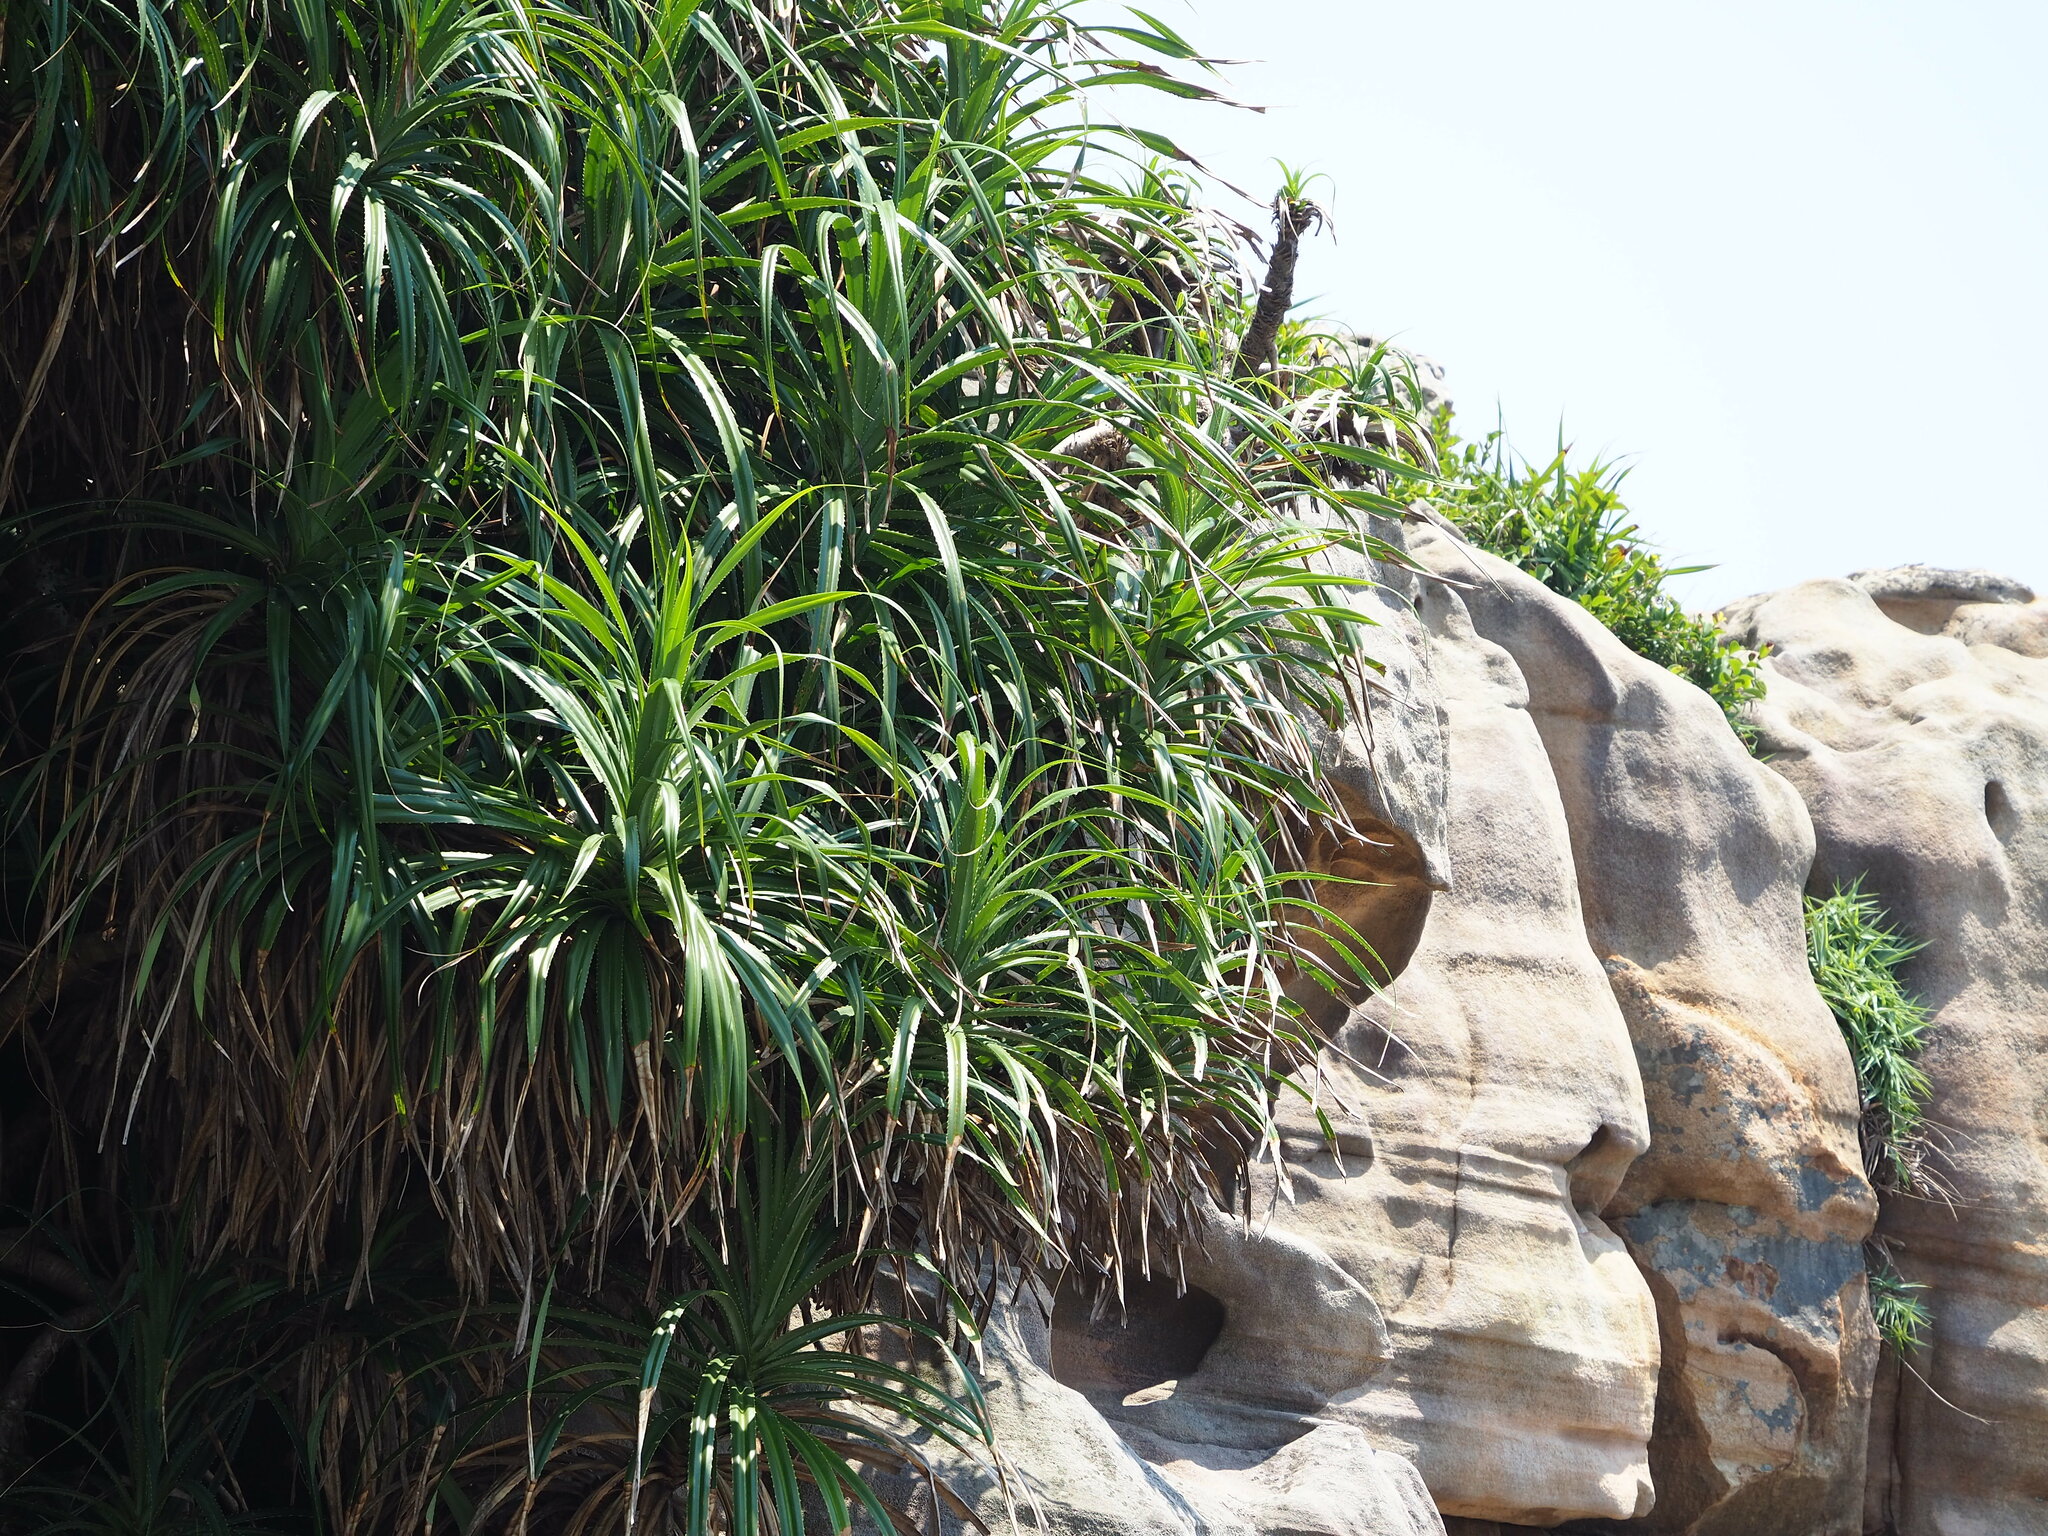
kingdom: Plantae
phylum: Tracheophyta
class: Liliopsida
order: Pandanales
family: Pandanaceae
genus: Pandanus
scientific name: Pandanus odorifer
